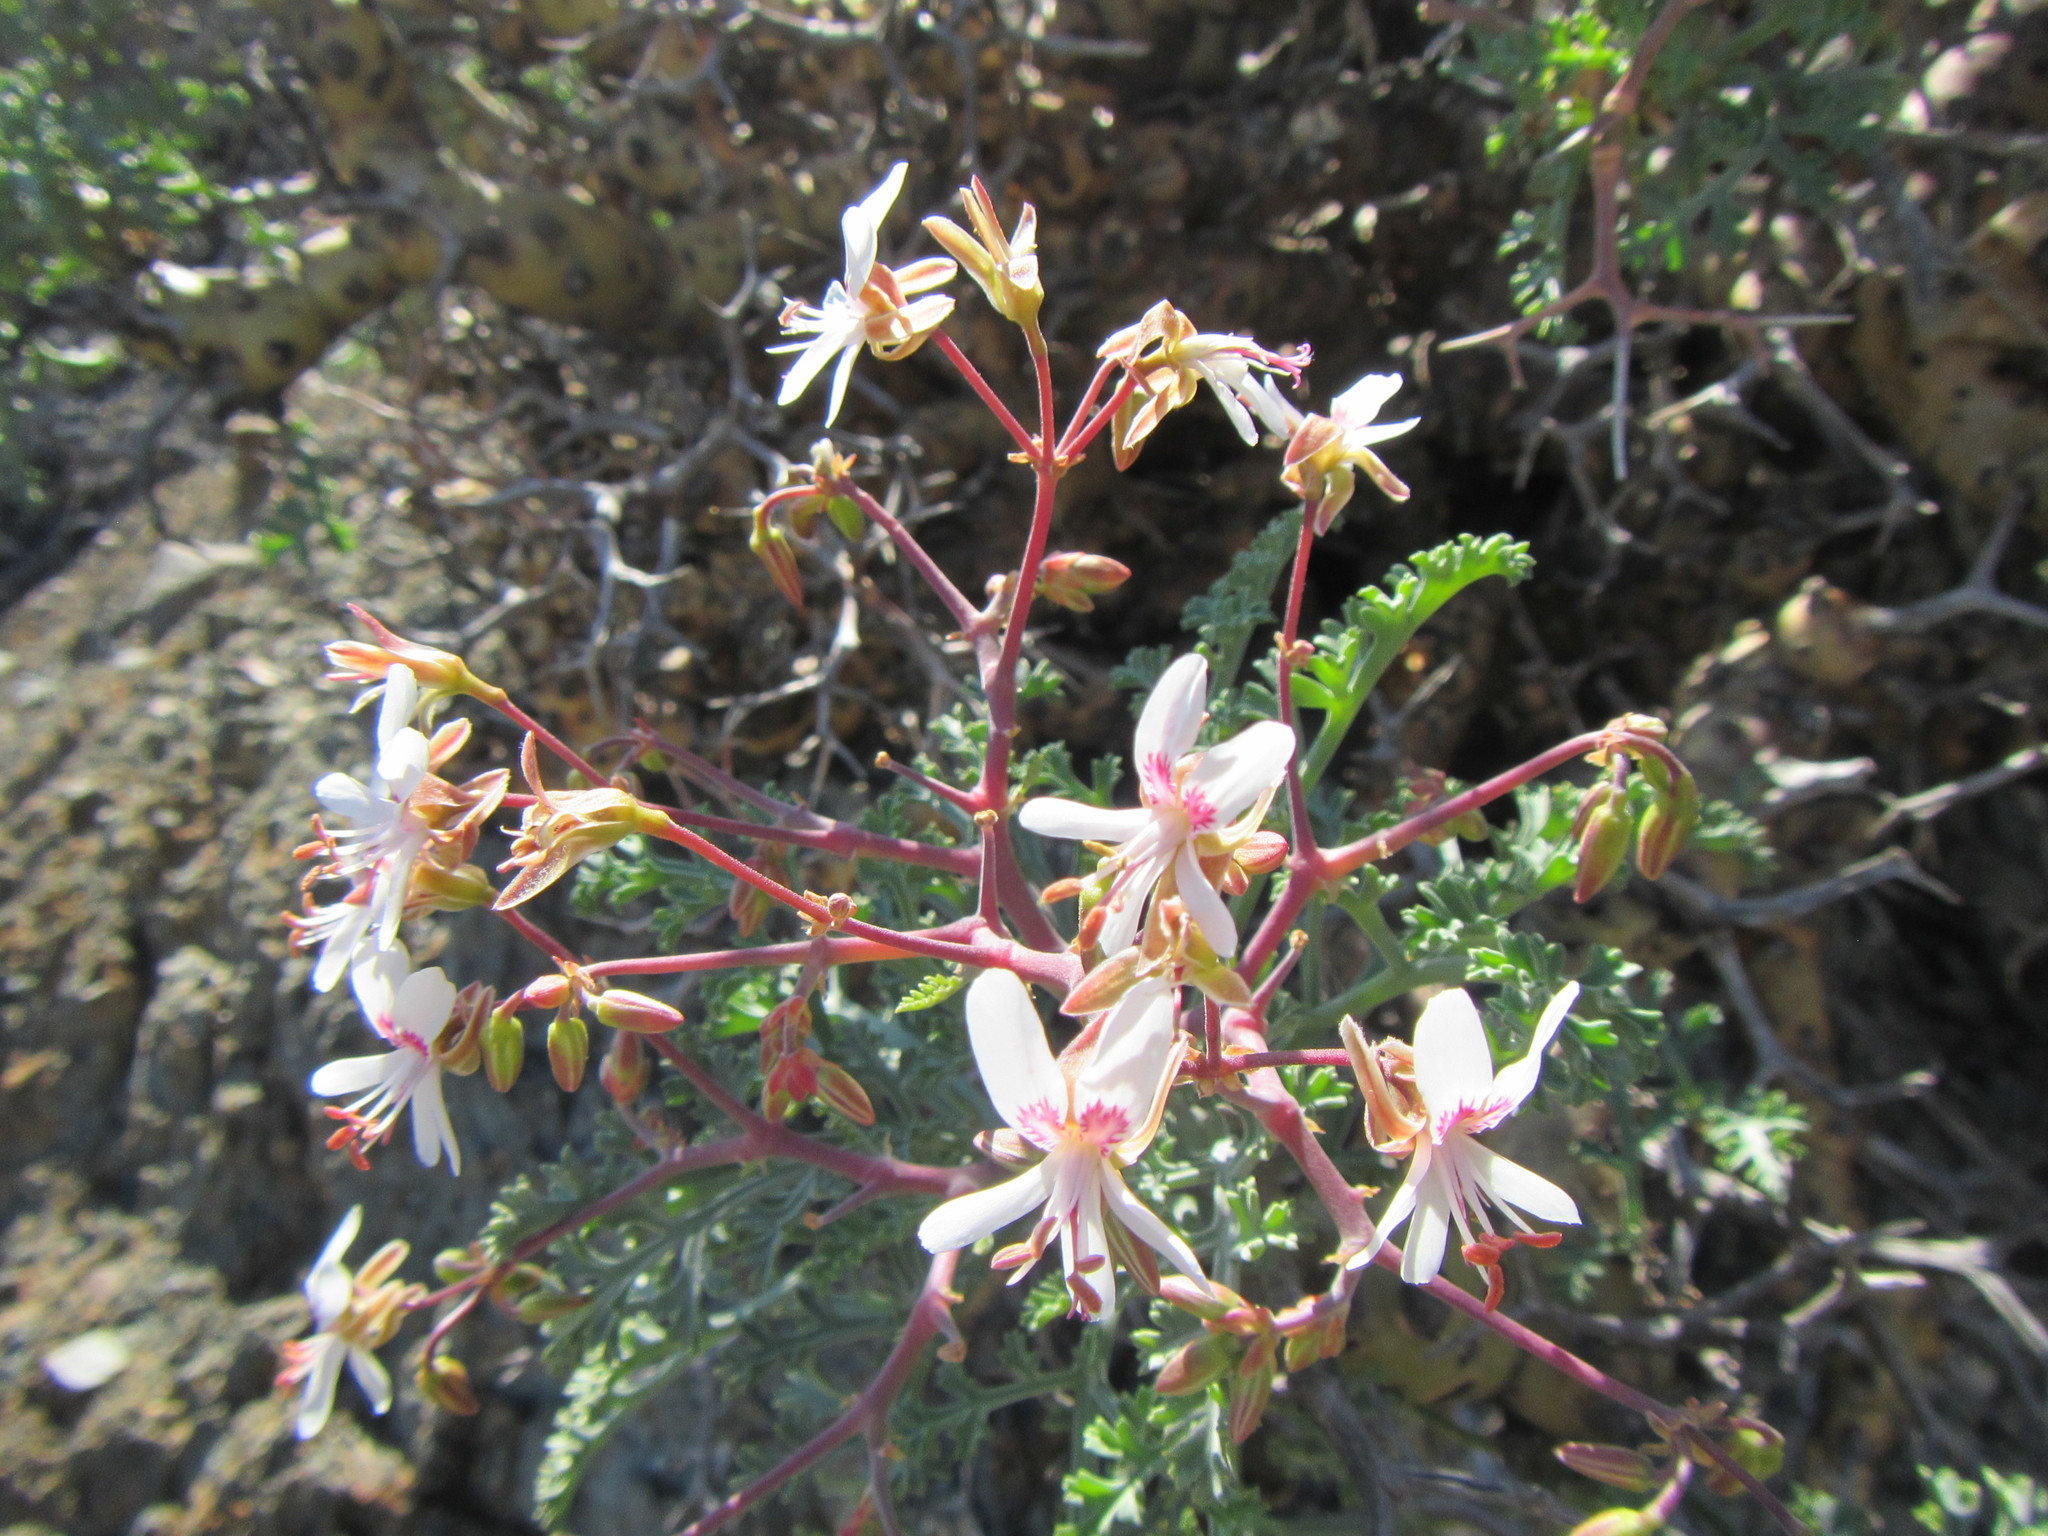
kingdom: Plantae
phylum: Tracheophyta
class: Magnoliopsida
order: Geraniales
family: Geraniaceae
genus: Pelargonium
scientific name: Pelargonium crithmifolium
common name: Samphire-leaf pelargonium
